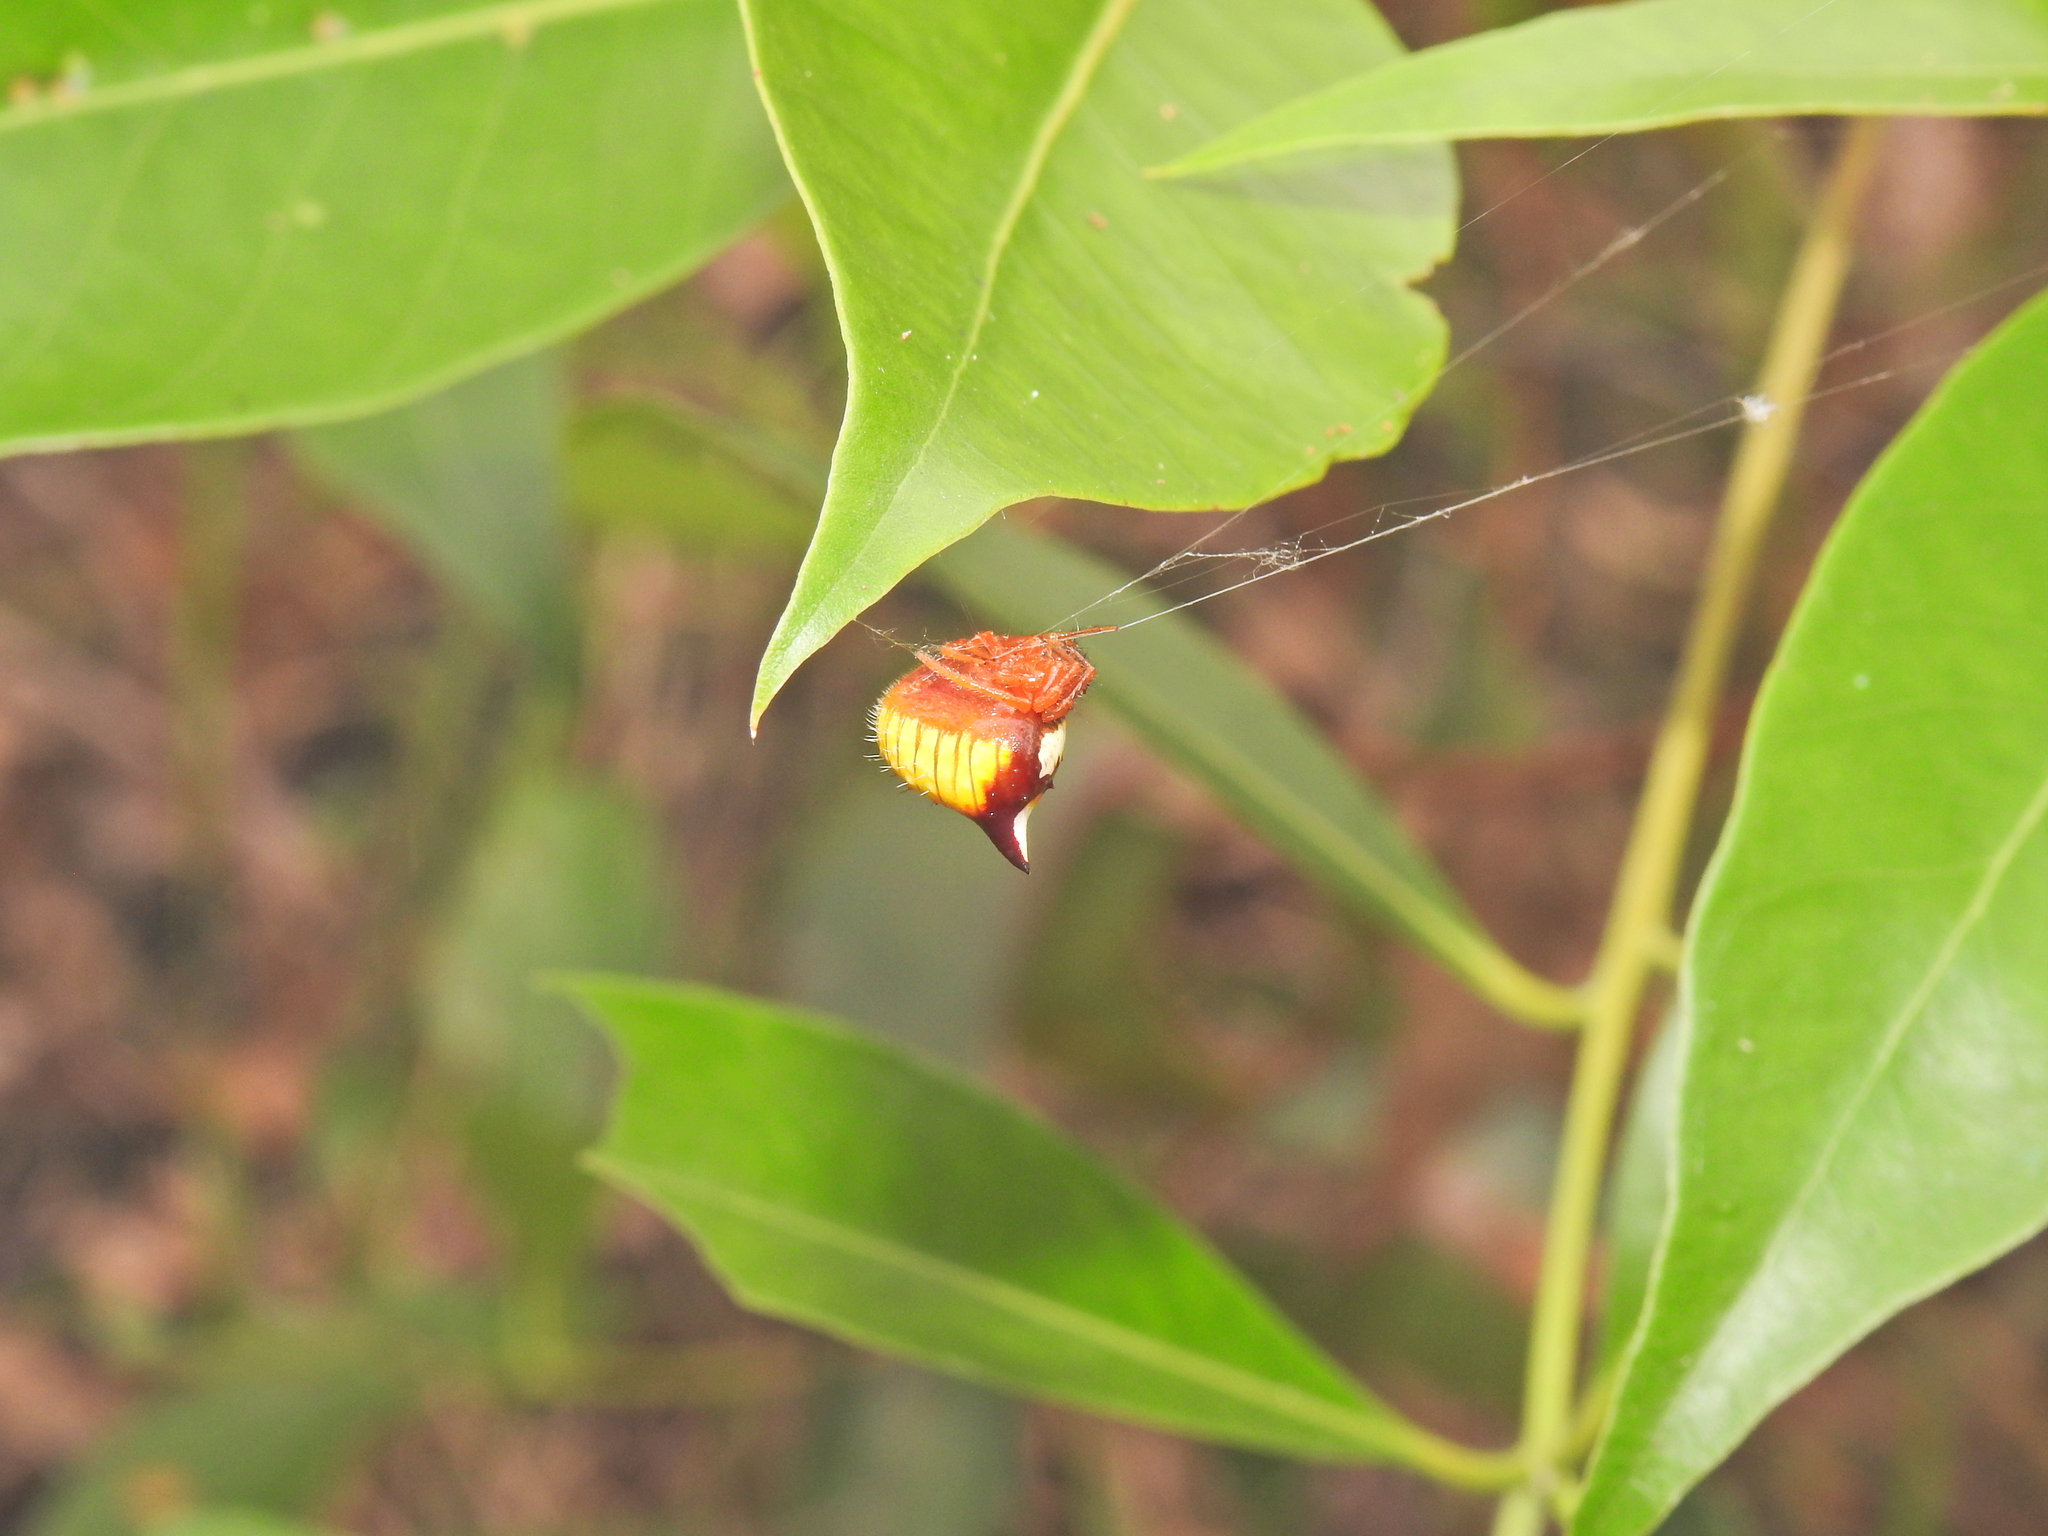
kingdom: Animalia
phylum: Arthropoda
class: Arachnida
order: Araneae
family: Araneidae
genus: Poecilopachys
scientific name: Poecilopachys australasia
